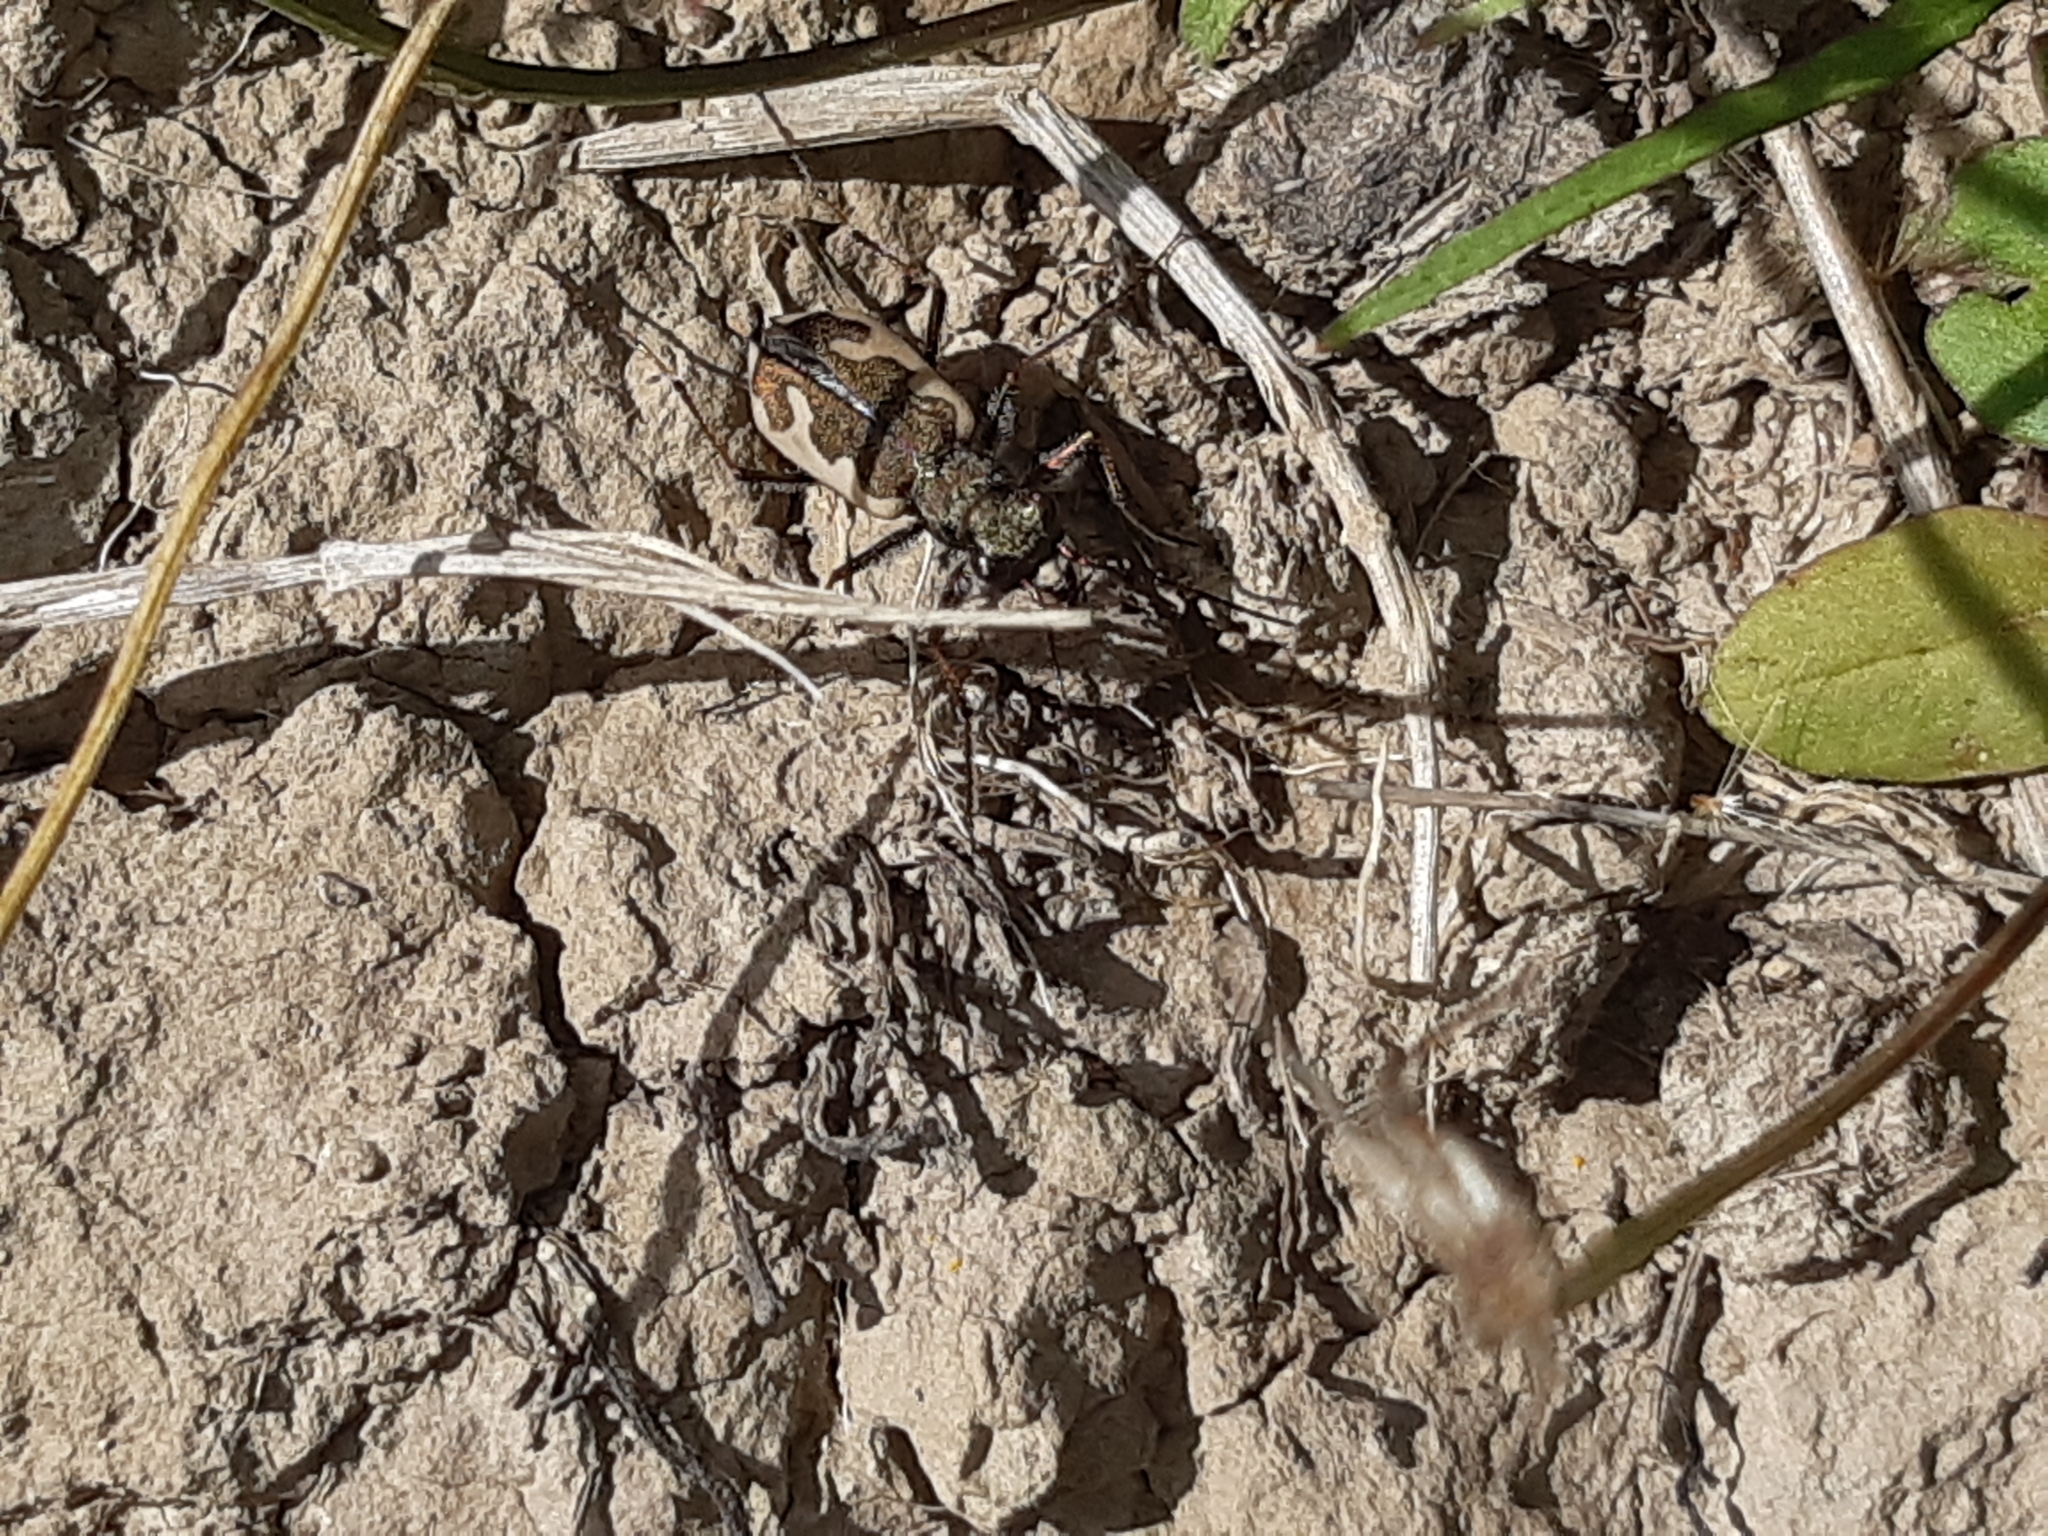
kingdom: Animalia
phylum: Arthropoda
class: Insecta
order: Coleoptera
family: Carabidae
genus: Neocicindela
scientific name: Neocicindela latecincta
